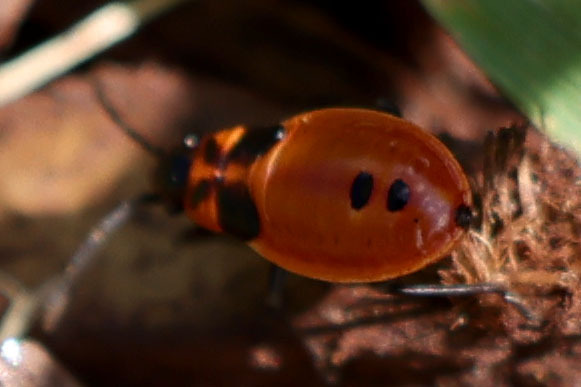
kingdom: Animalia
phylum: Arthropoda
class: Insecta
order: Hemiptera
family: Lygaeidae
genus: Lygaeus
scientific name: Lygaeus turcicus
